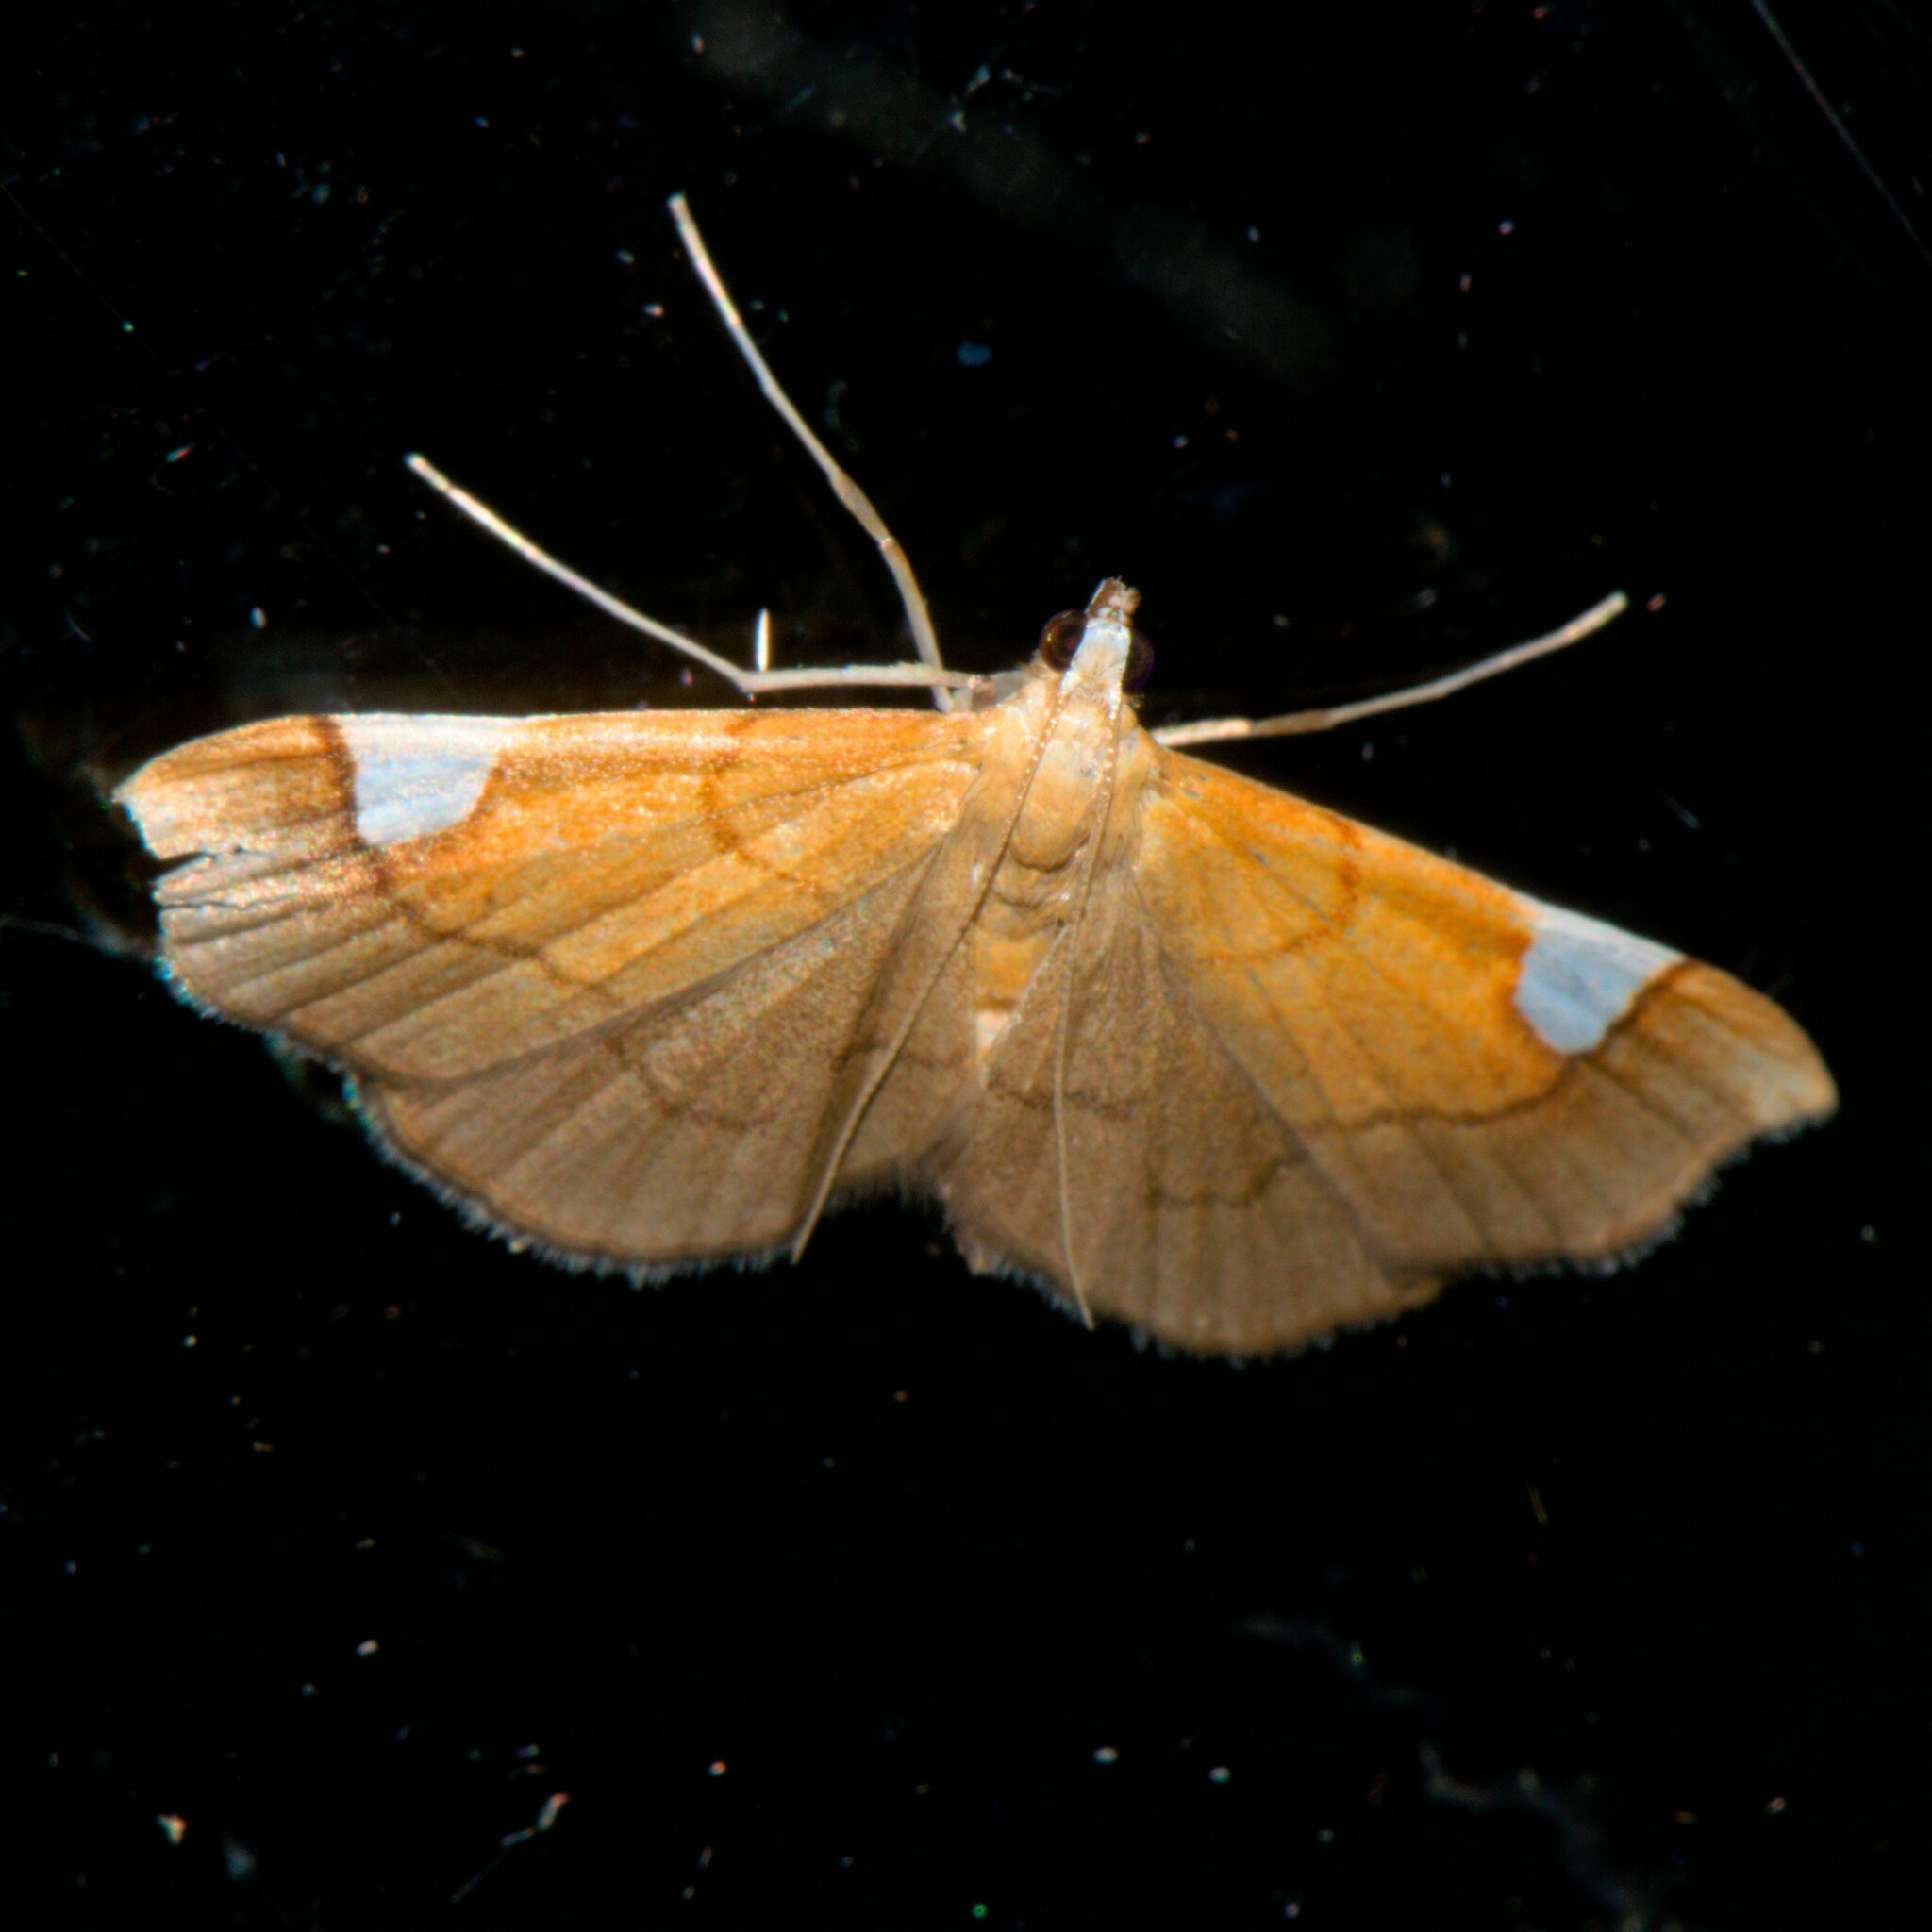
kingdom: Animalia
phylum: Arthropoda
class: Insecta
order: Lepidoptera
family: Crambidae
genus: Diathraustodes
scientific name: Diathraustodes fulvofusa
